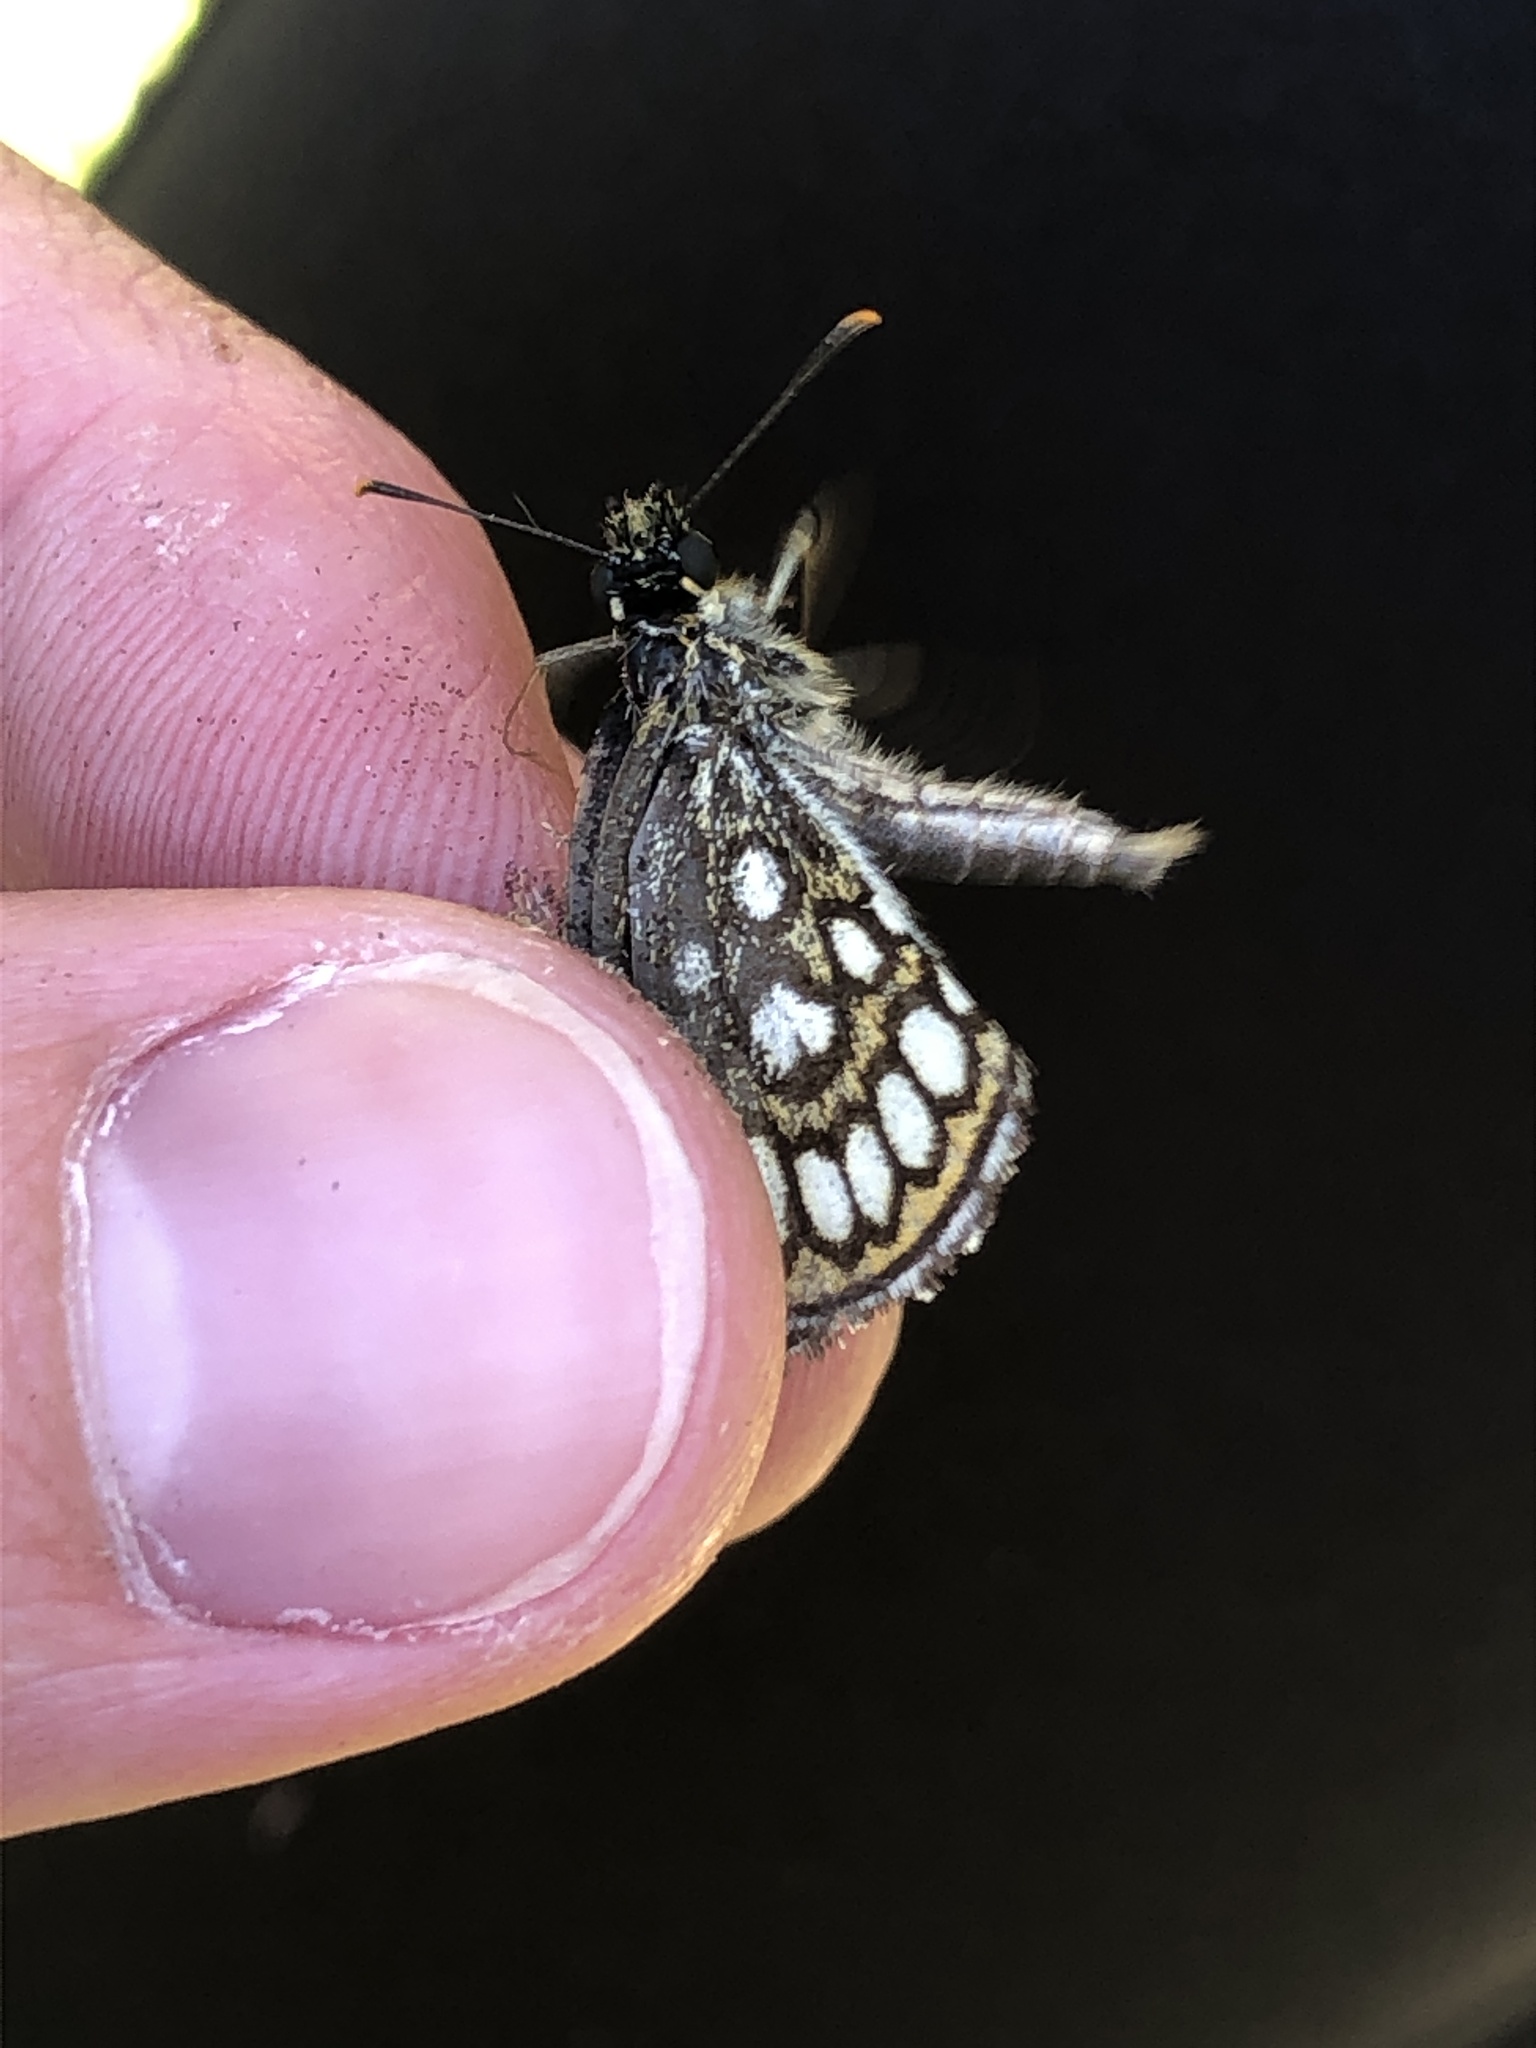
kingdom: Animalia
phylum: Arthropoda
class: Insecta
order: Lepidoptera
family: Hesperiidae
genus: Heteropterus
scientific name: Heteropterus morpheus
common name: Large chequered skipper
